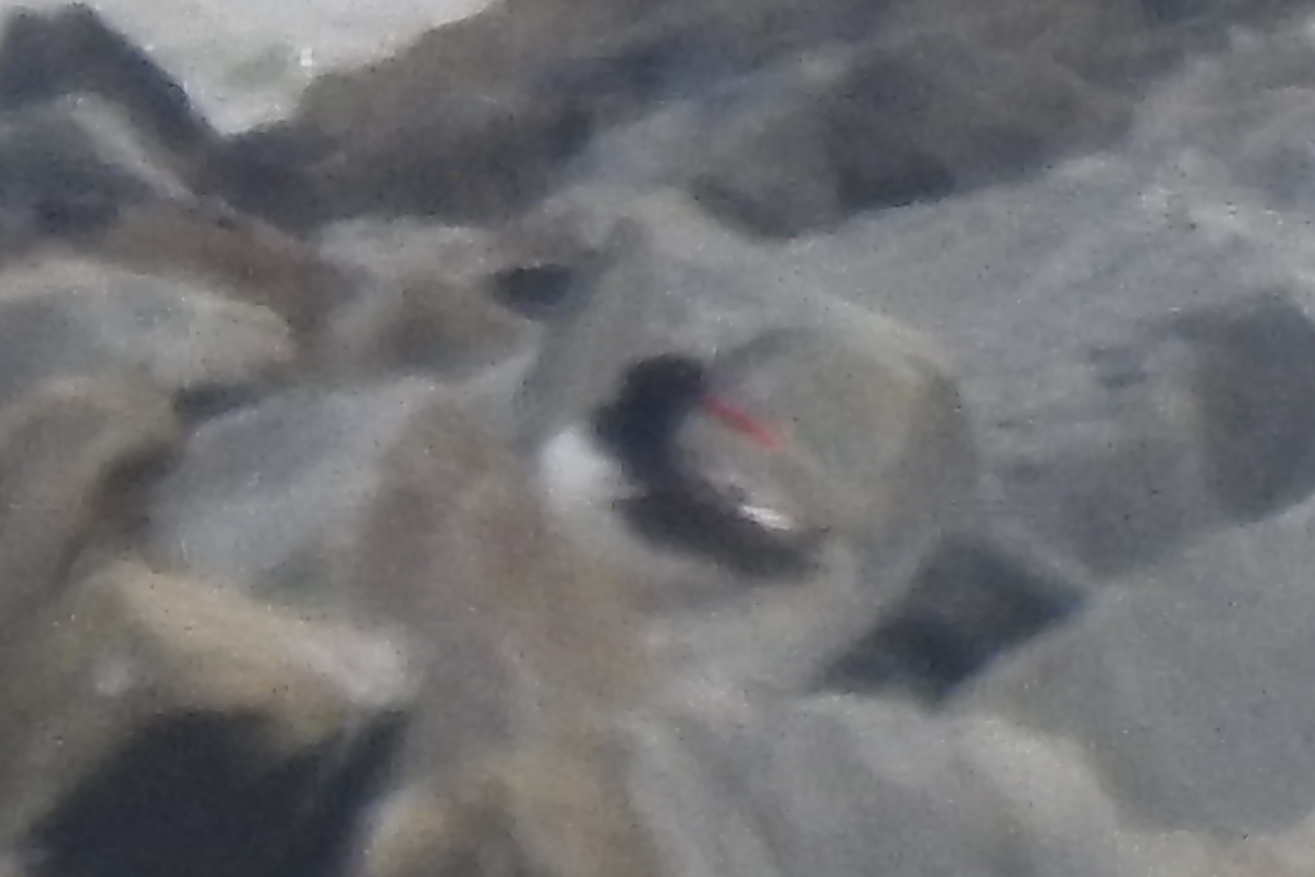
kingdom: Animalia
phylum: Chordata
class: Aves
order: Charadriiformes
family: Haematopodidae
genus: Haematopus
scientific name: Haematopus palliatus
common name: American oystercatcher
